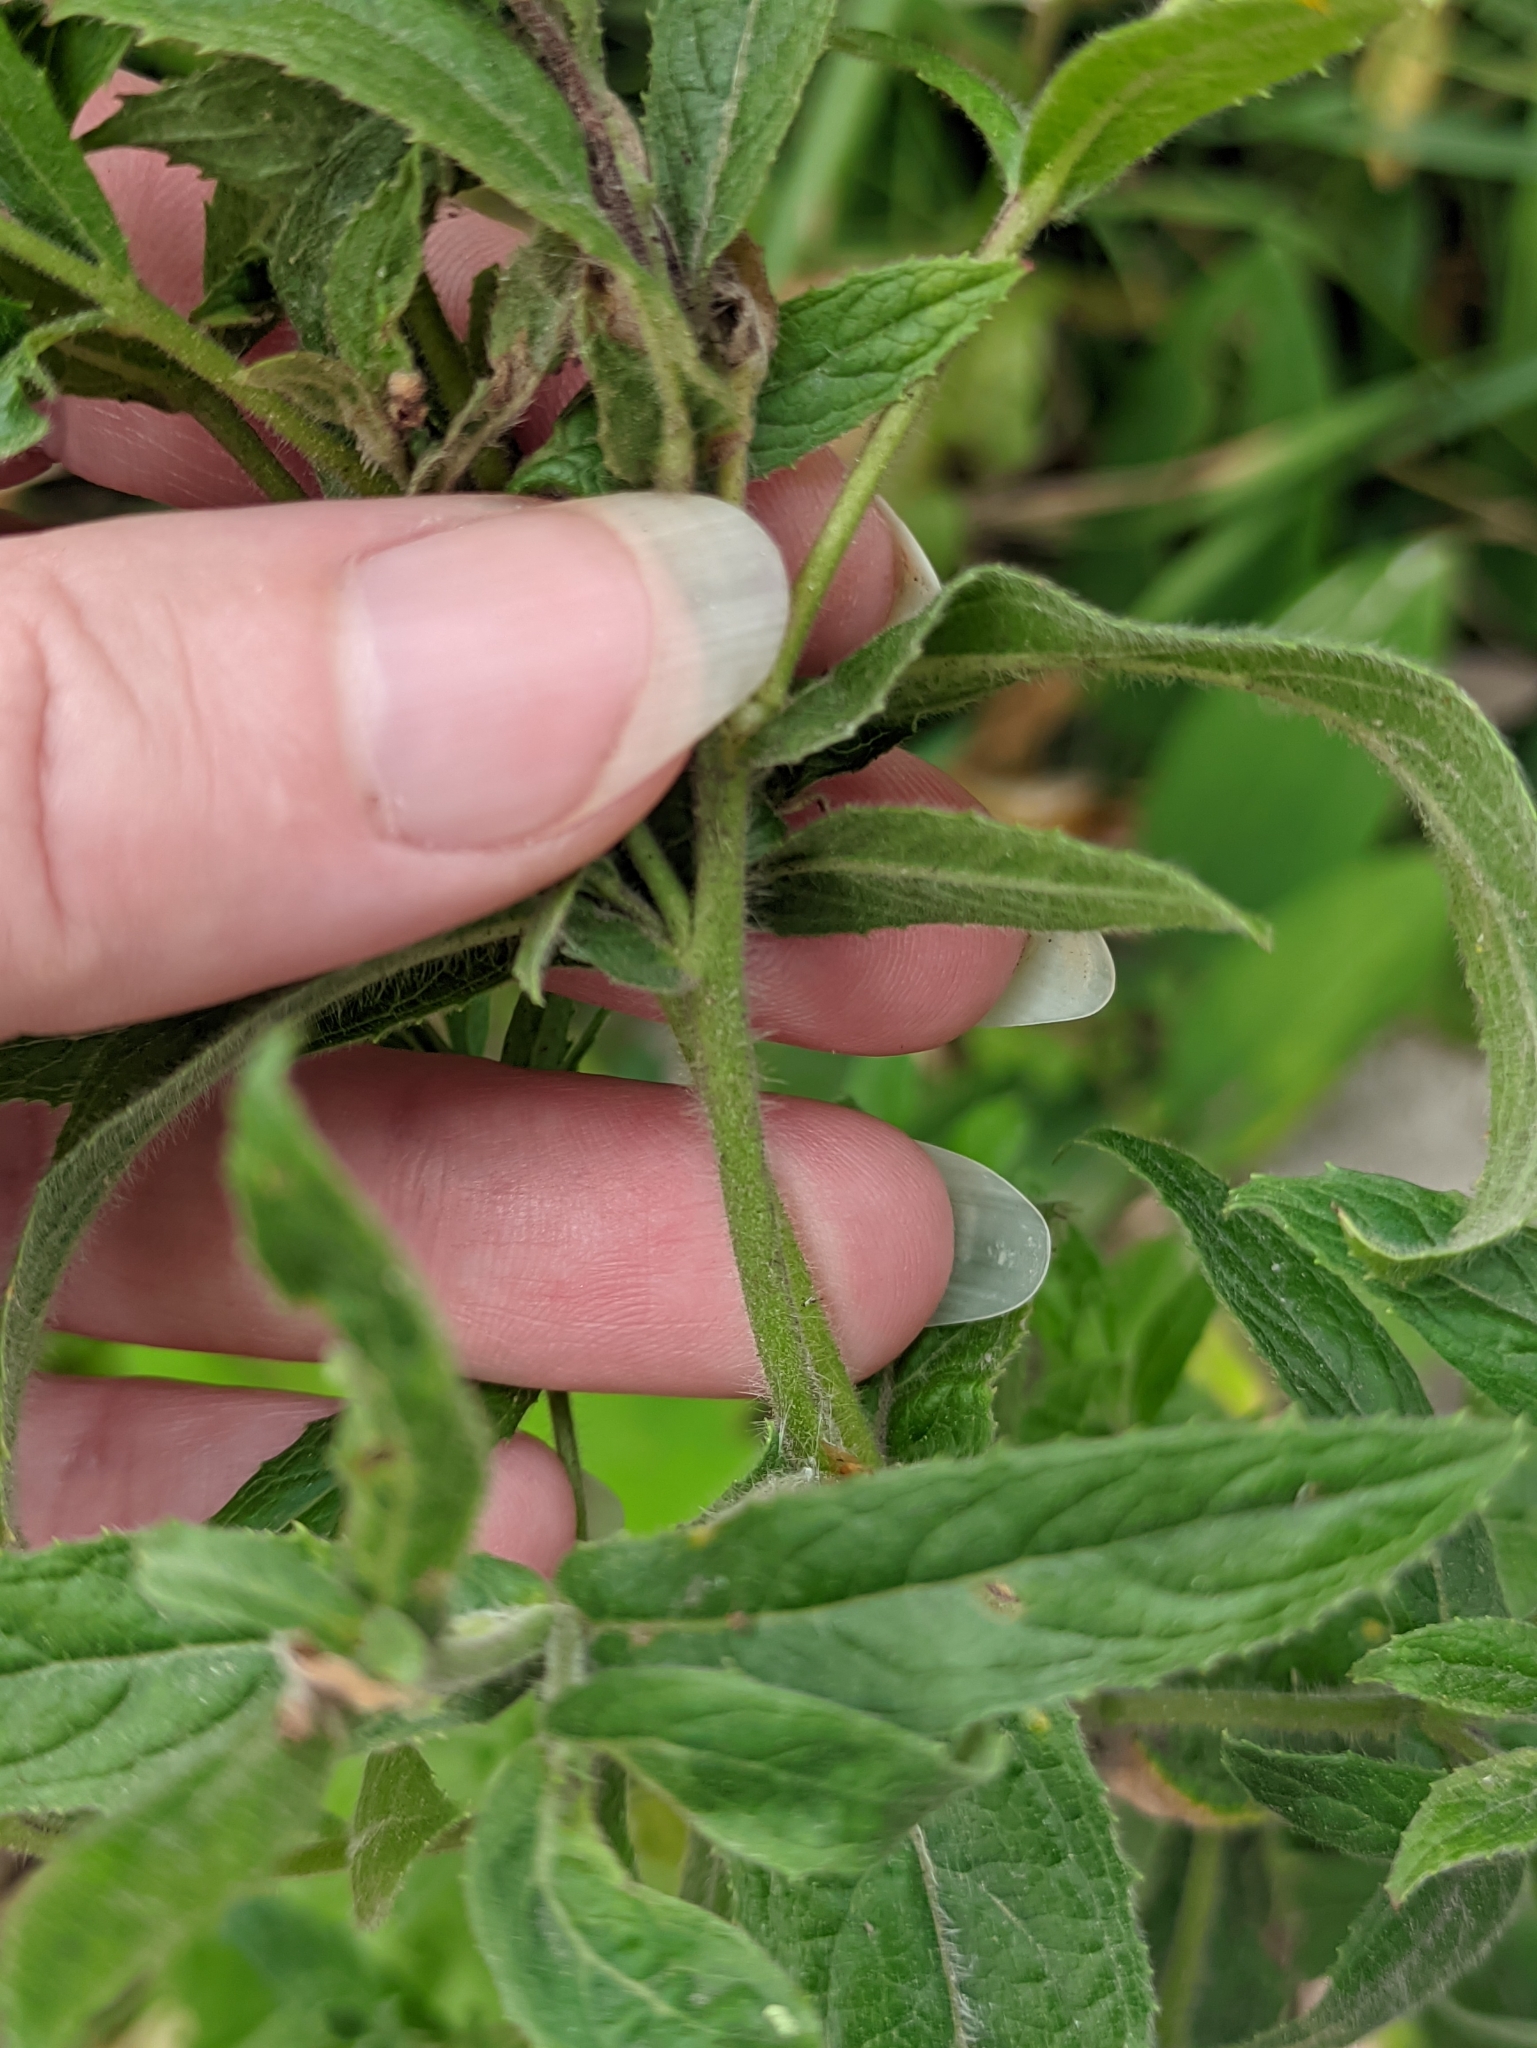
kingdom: Plantae
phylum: Tracheophyta
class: Magnoliopsida
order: Myrtales
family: Onagraceae
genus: Epilobium
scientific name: Epilobium hirsutum
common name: Great willowherb
